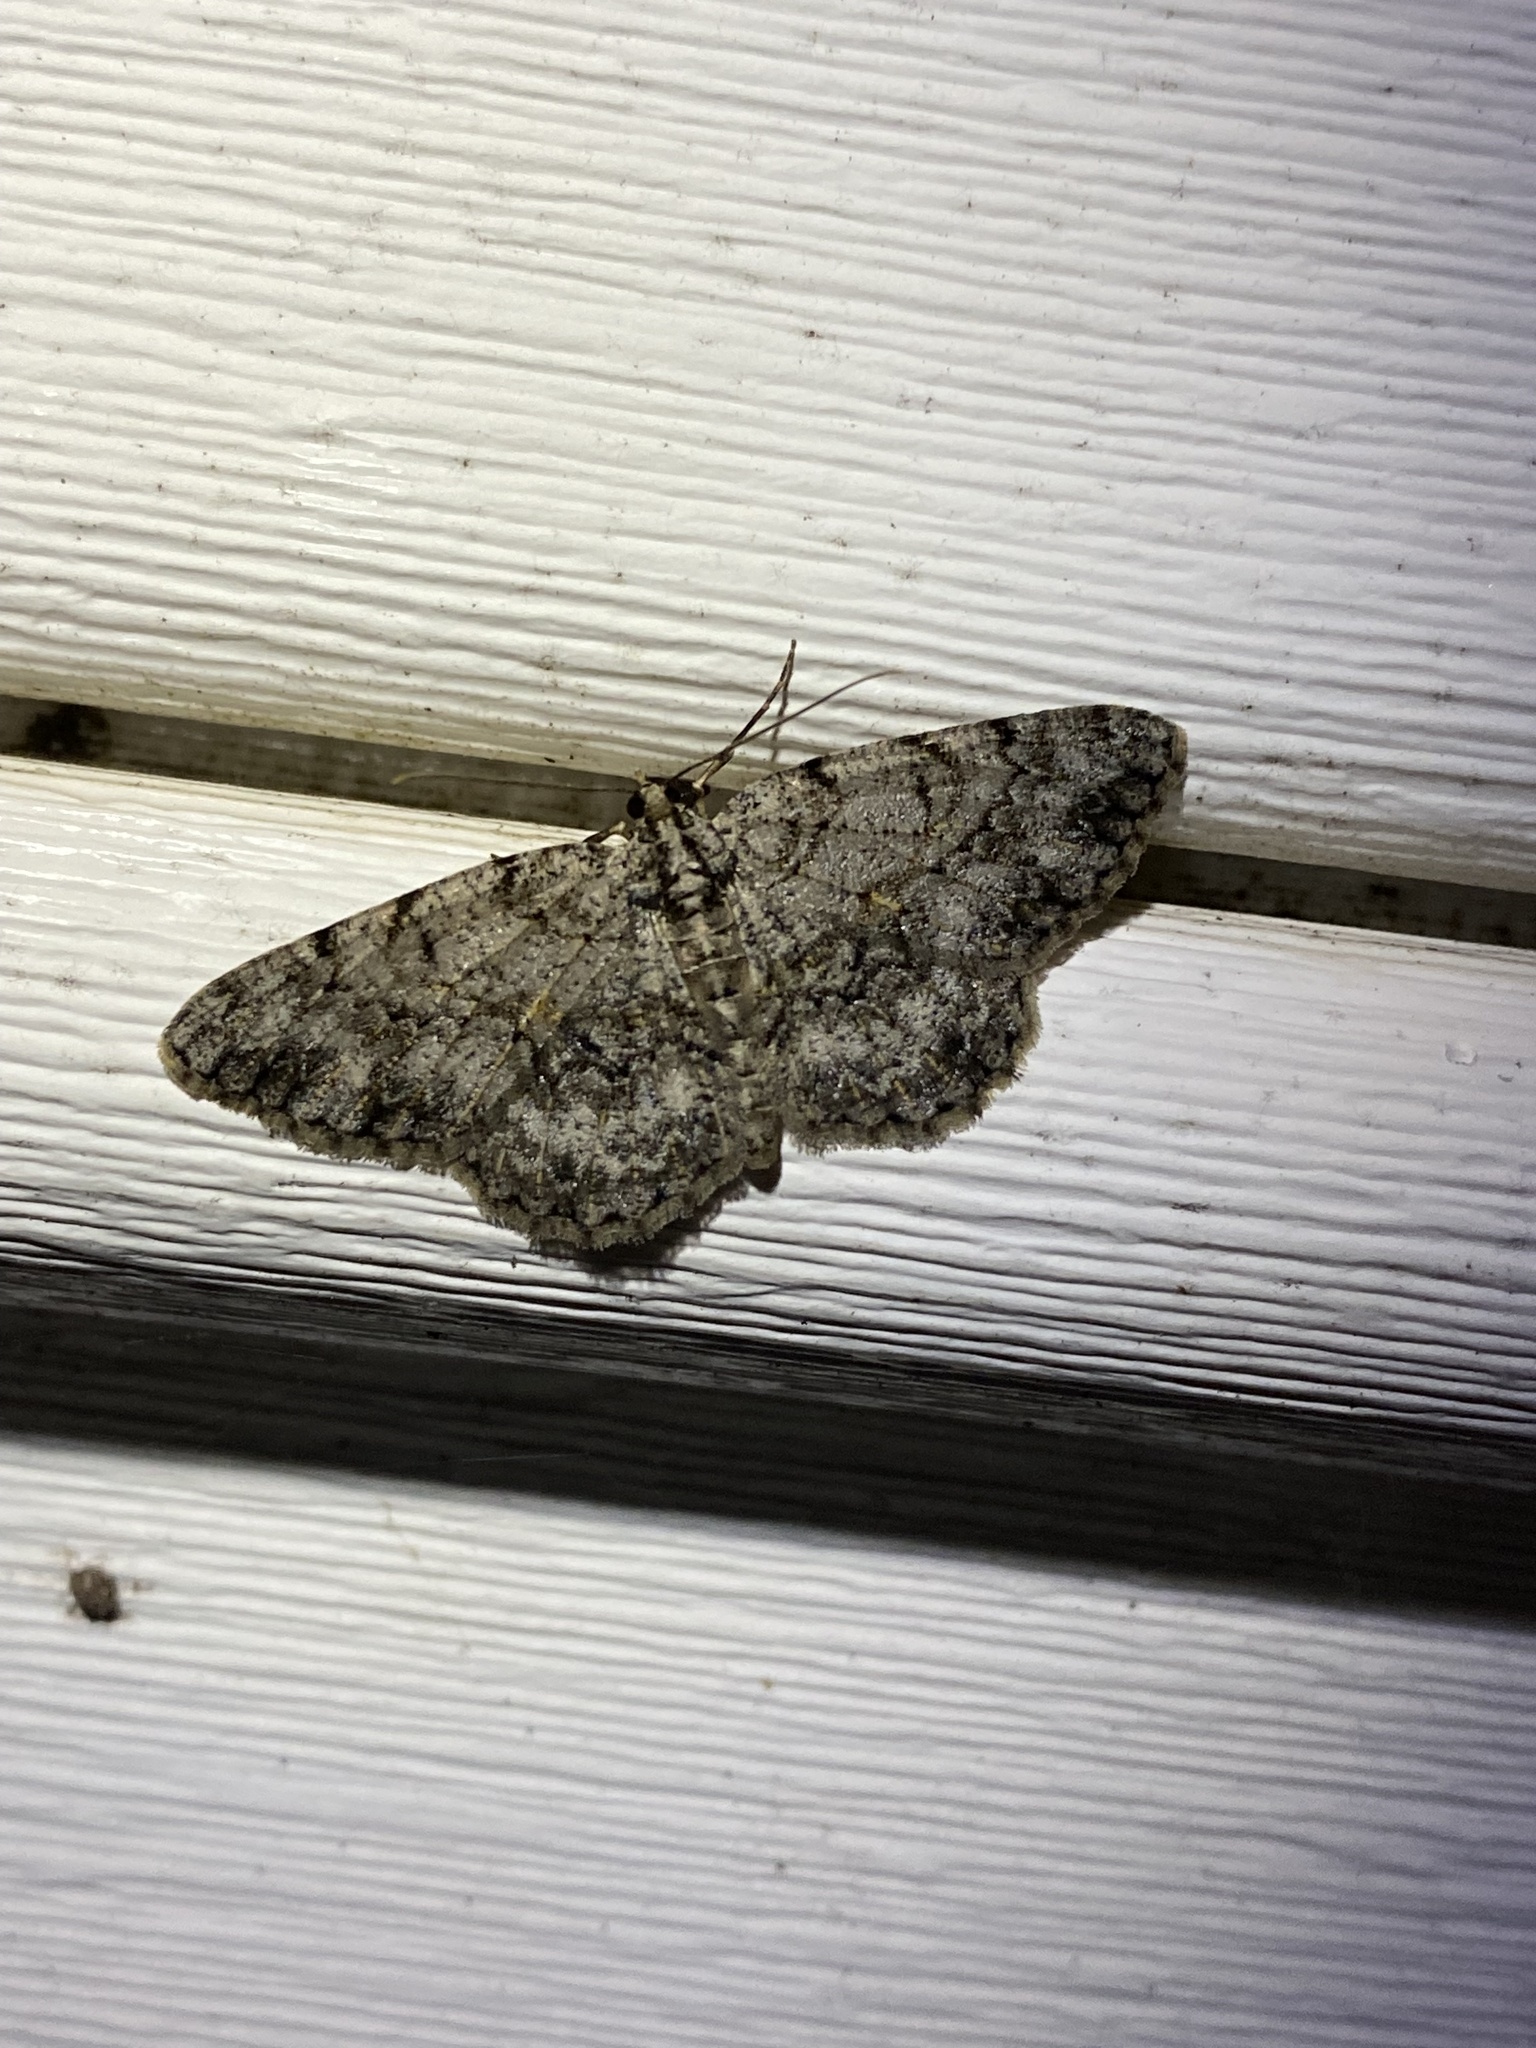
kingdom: Animalia
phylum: Arthropoda
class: Insecta
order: Lepidoptera
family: Geometridae
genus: Protoboarmia
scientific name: Protoboarmia porcelaria
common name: Porcelain gray
